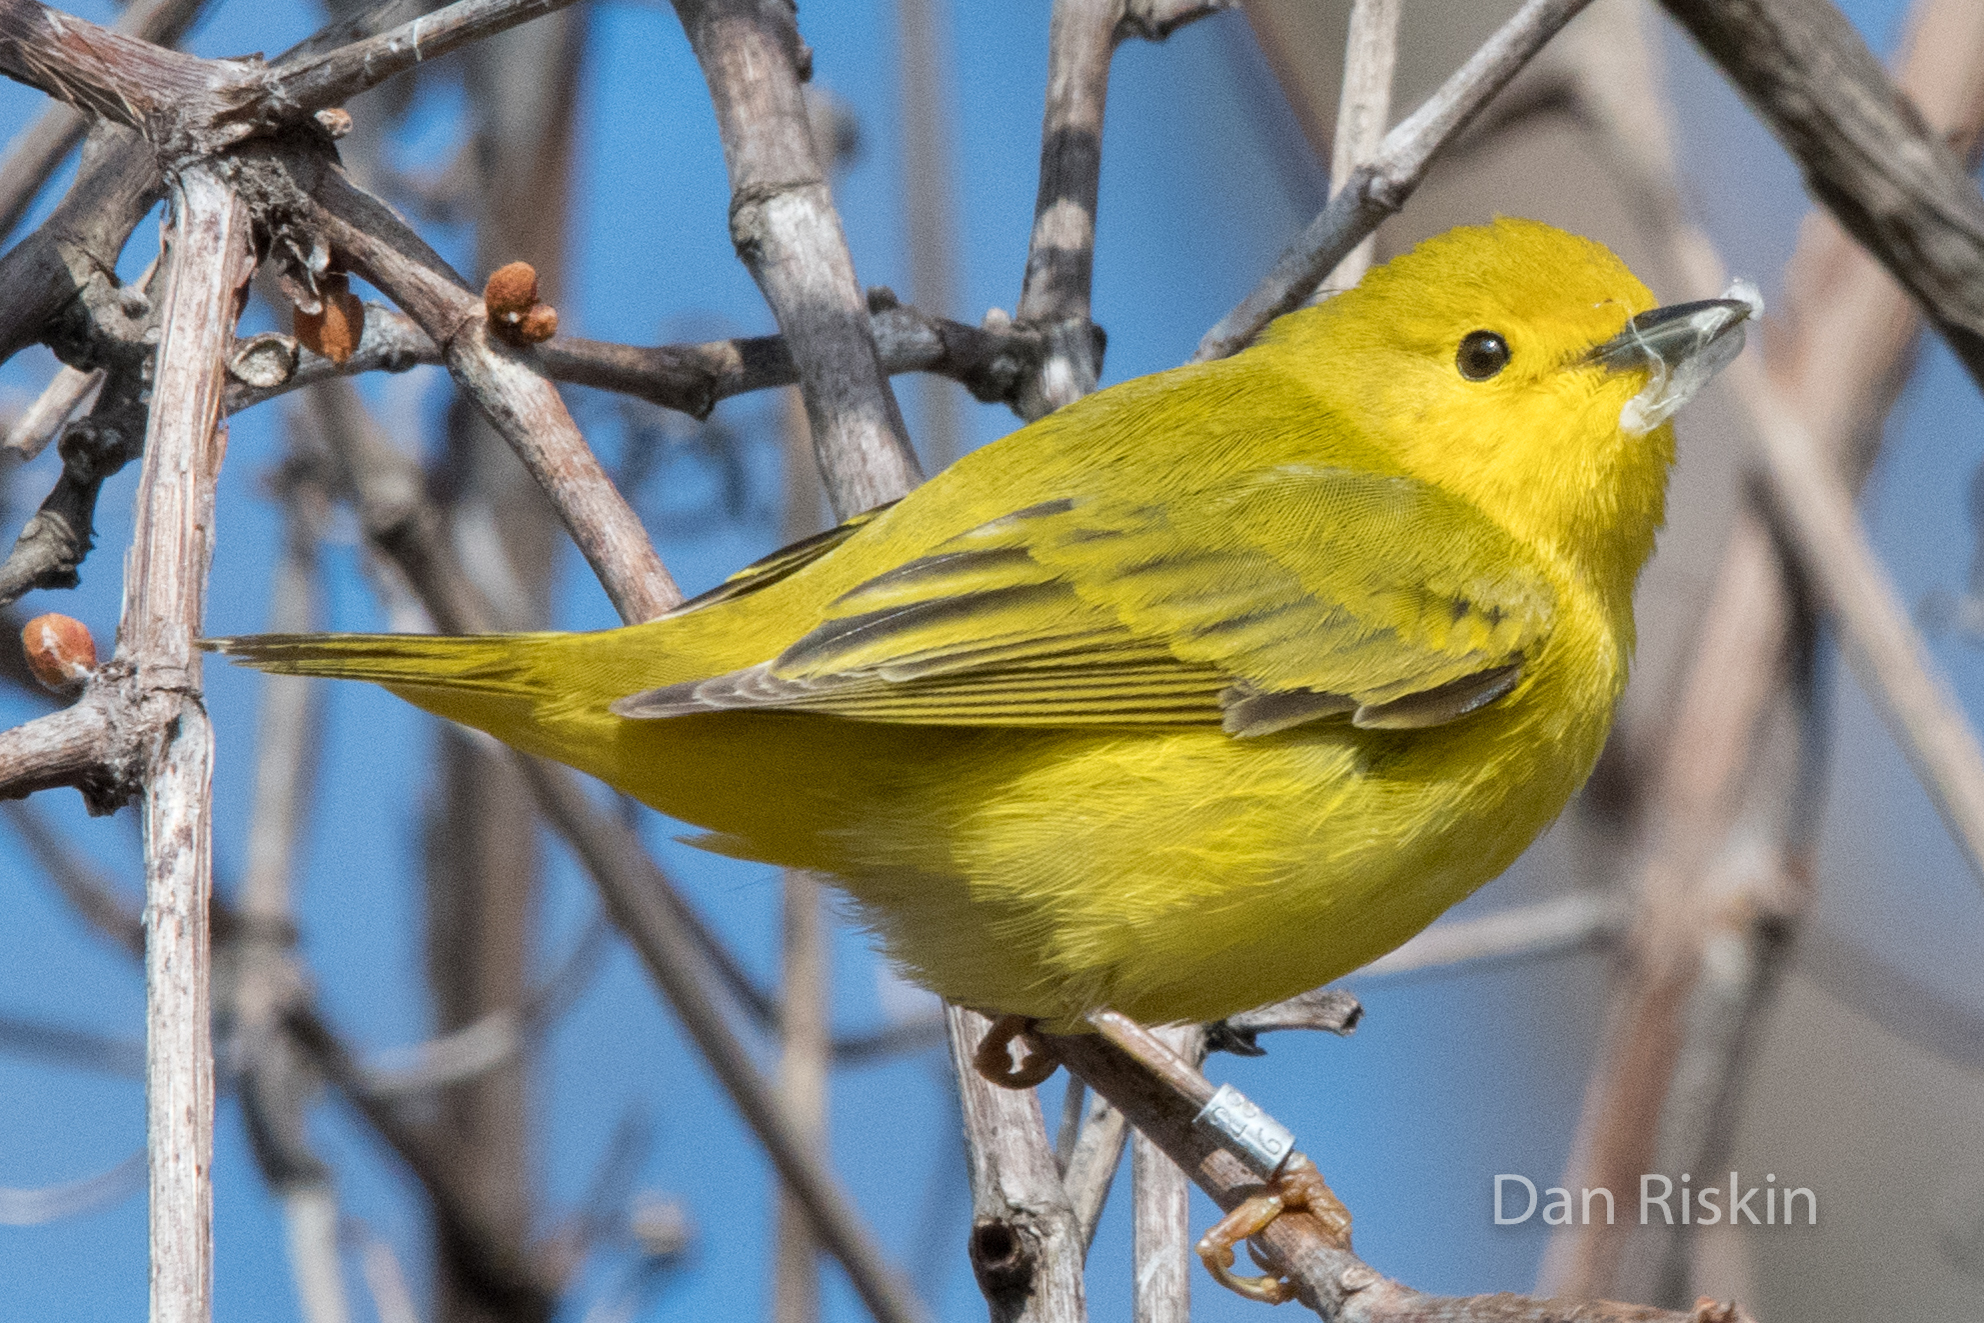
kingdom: Animalia
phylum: Chordata
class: Aves
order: Passeriformes
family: Parulidae
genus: Setophaga
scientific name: Setophaga petechia
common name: Yellow warbler
